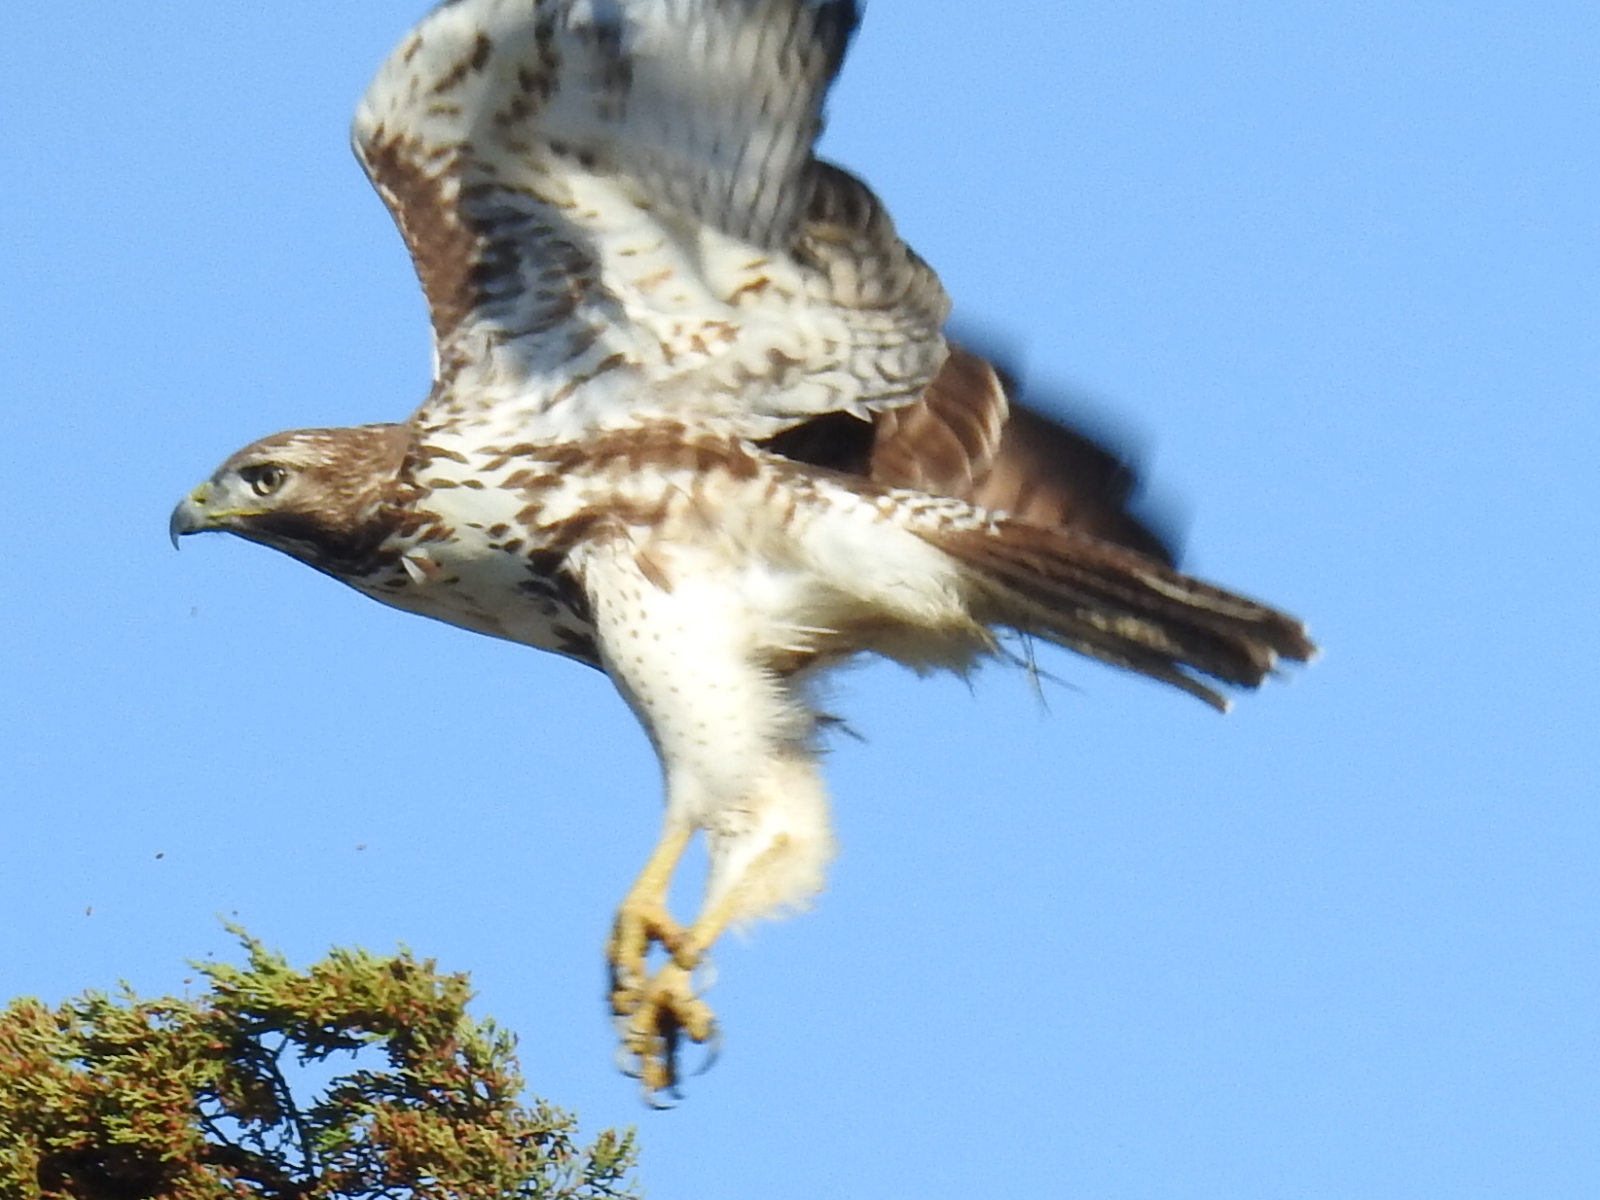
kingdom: Animalia
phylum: Chordata
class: Aves
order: Accipitriformes
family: Accipitridae
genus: Buteo
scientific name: Buteo jamaicensis
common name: Red-tailed hawk
